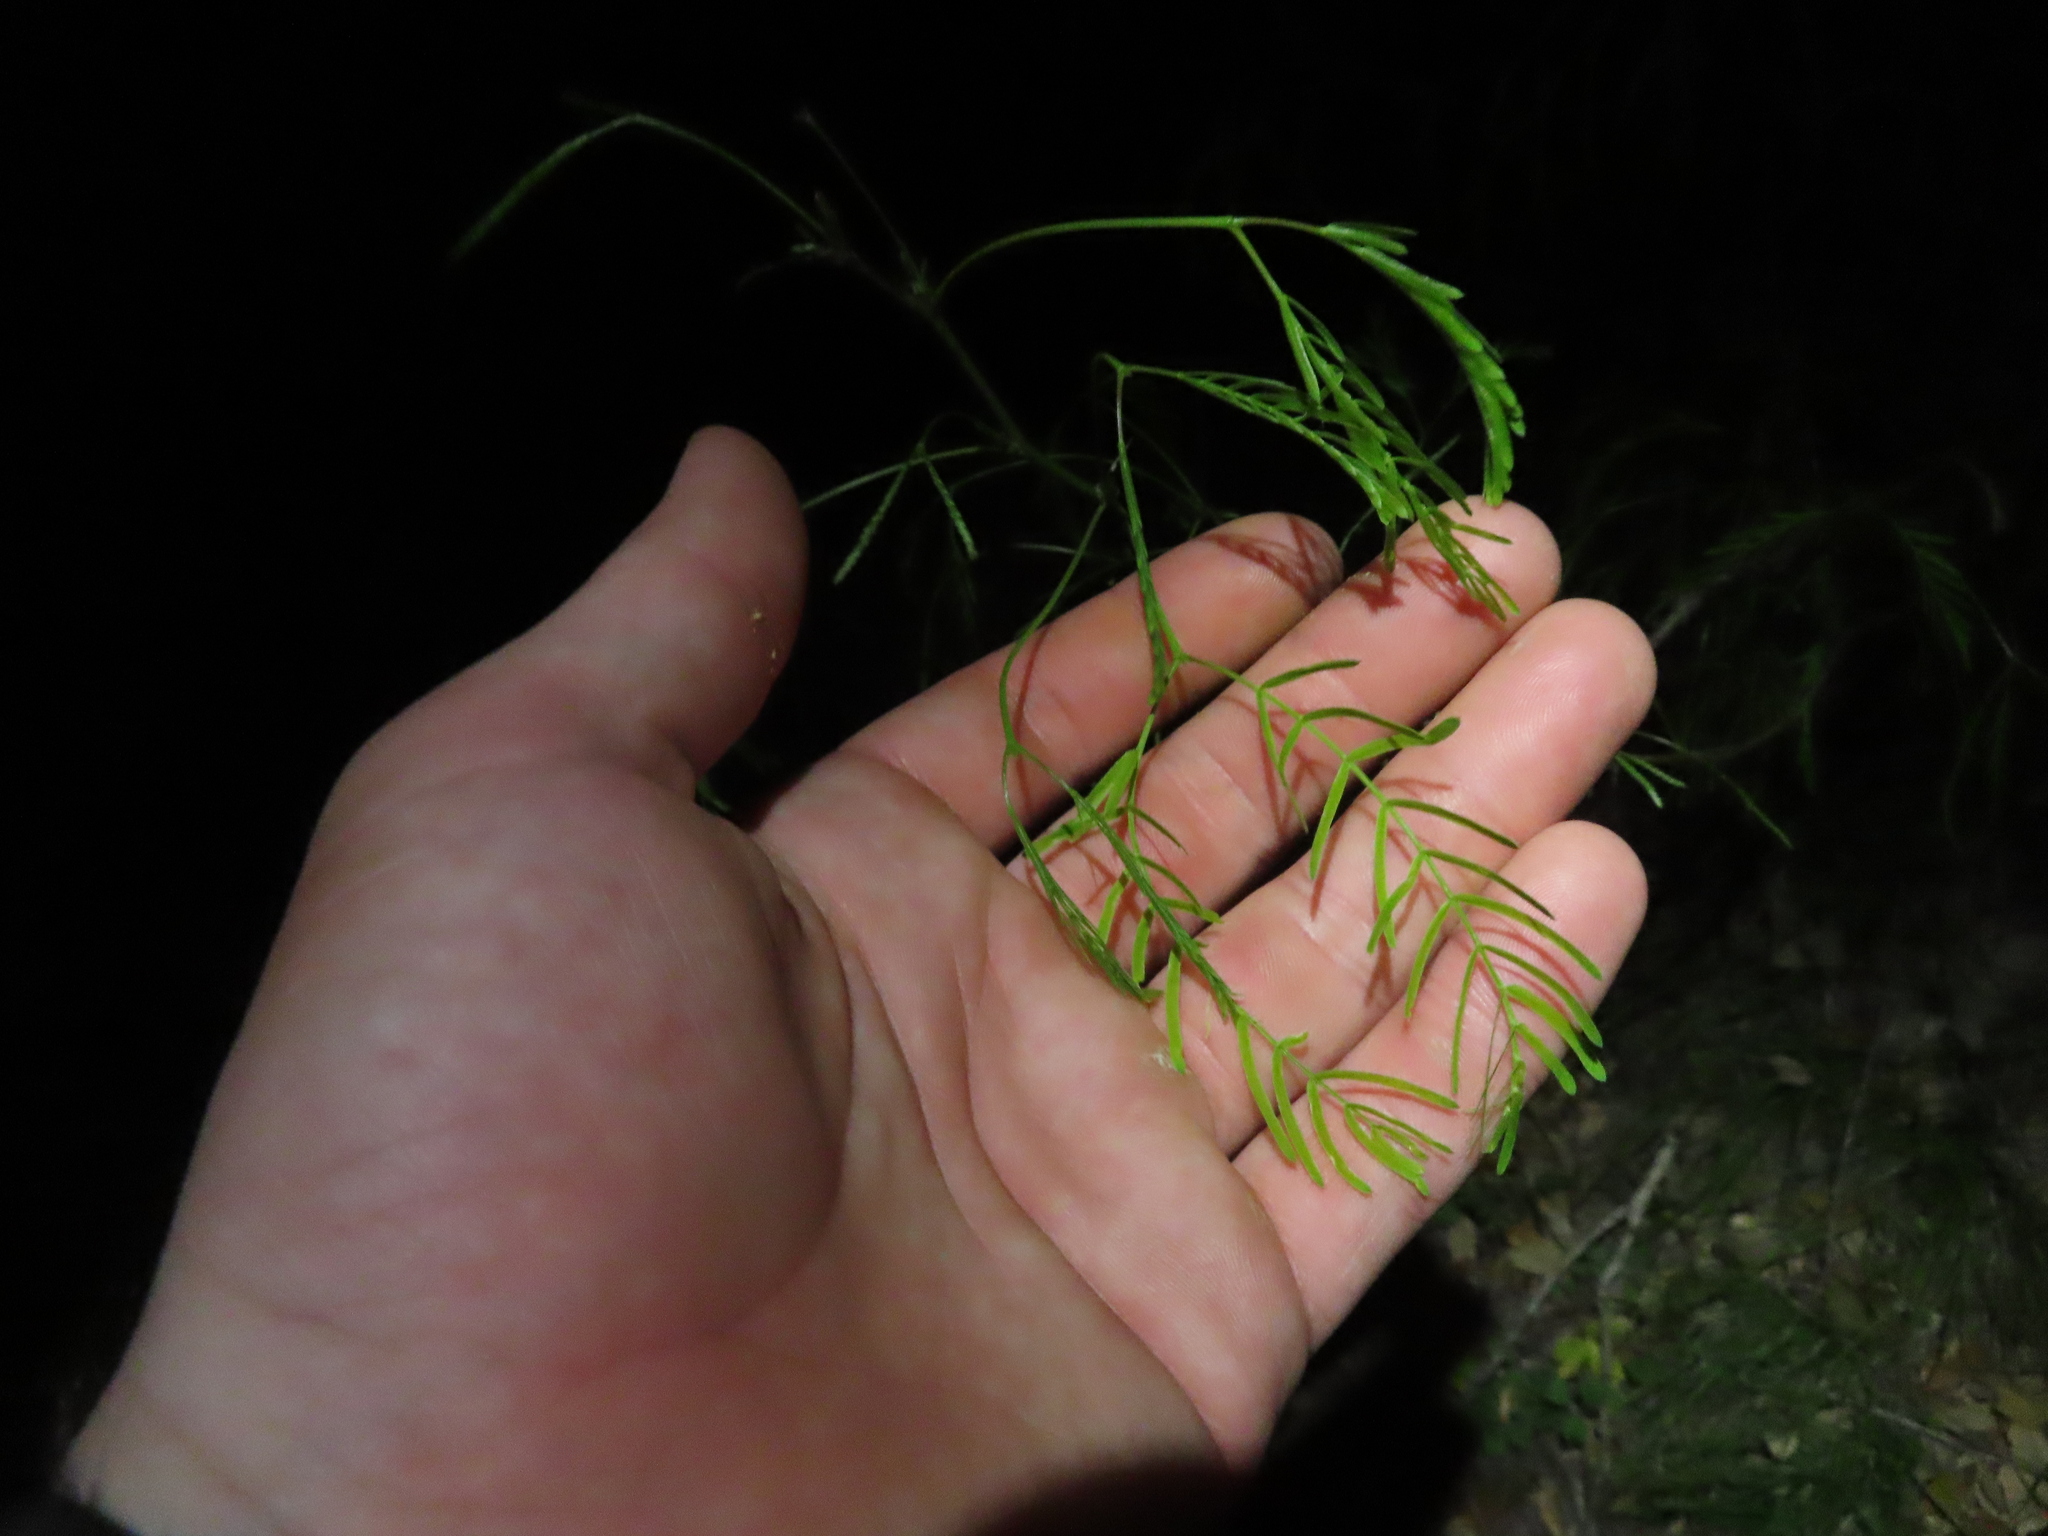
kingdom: Plantae
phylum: Tracheophyta
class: Magnoliopsida
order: Fabales
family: Fabaceae
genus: Prosopis
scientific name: Prosopis glandulosa
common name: Honey mesquite
